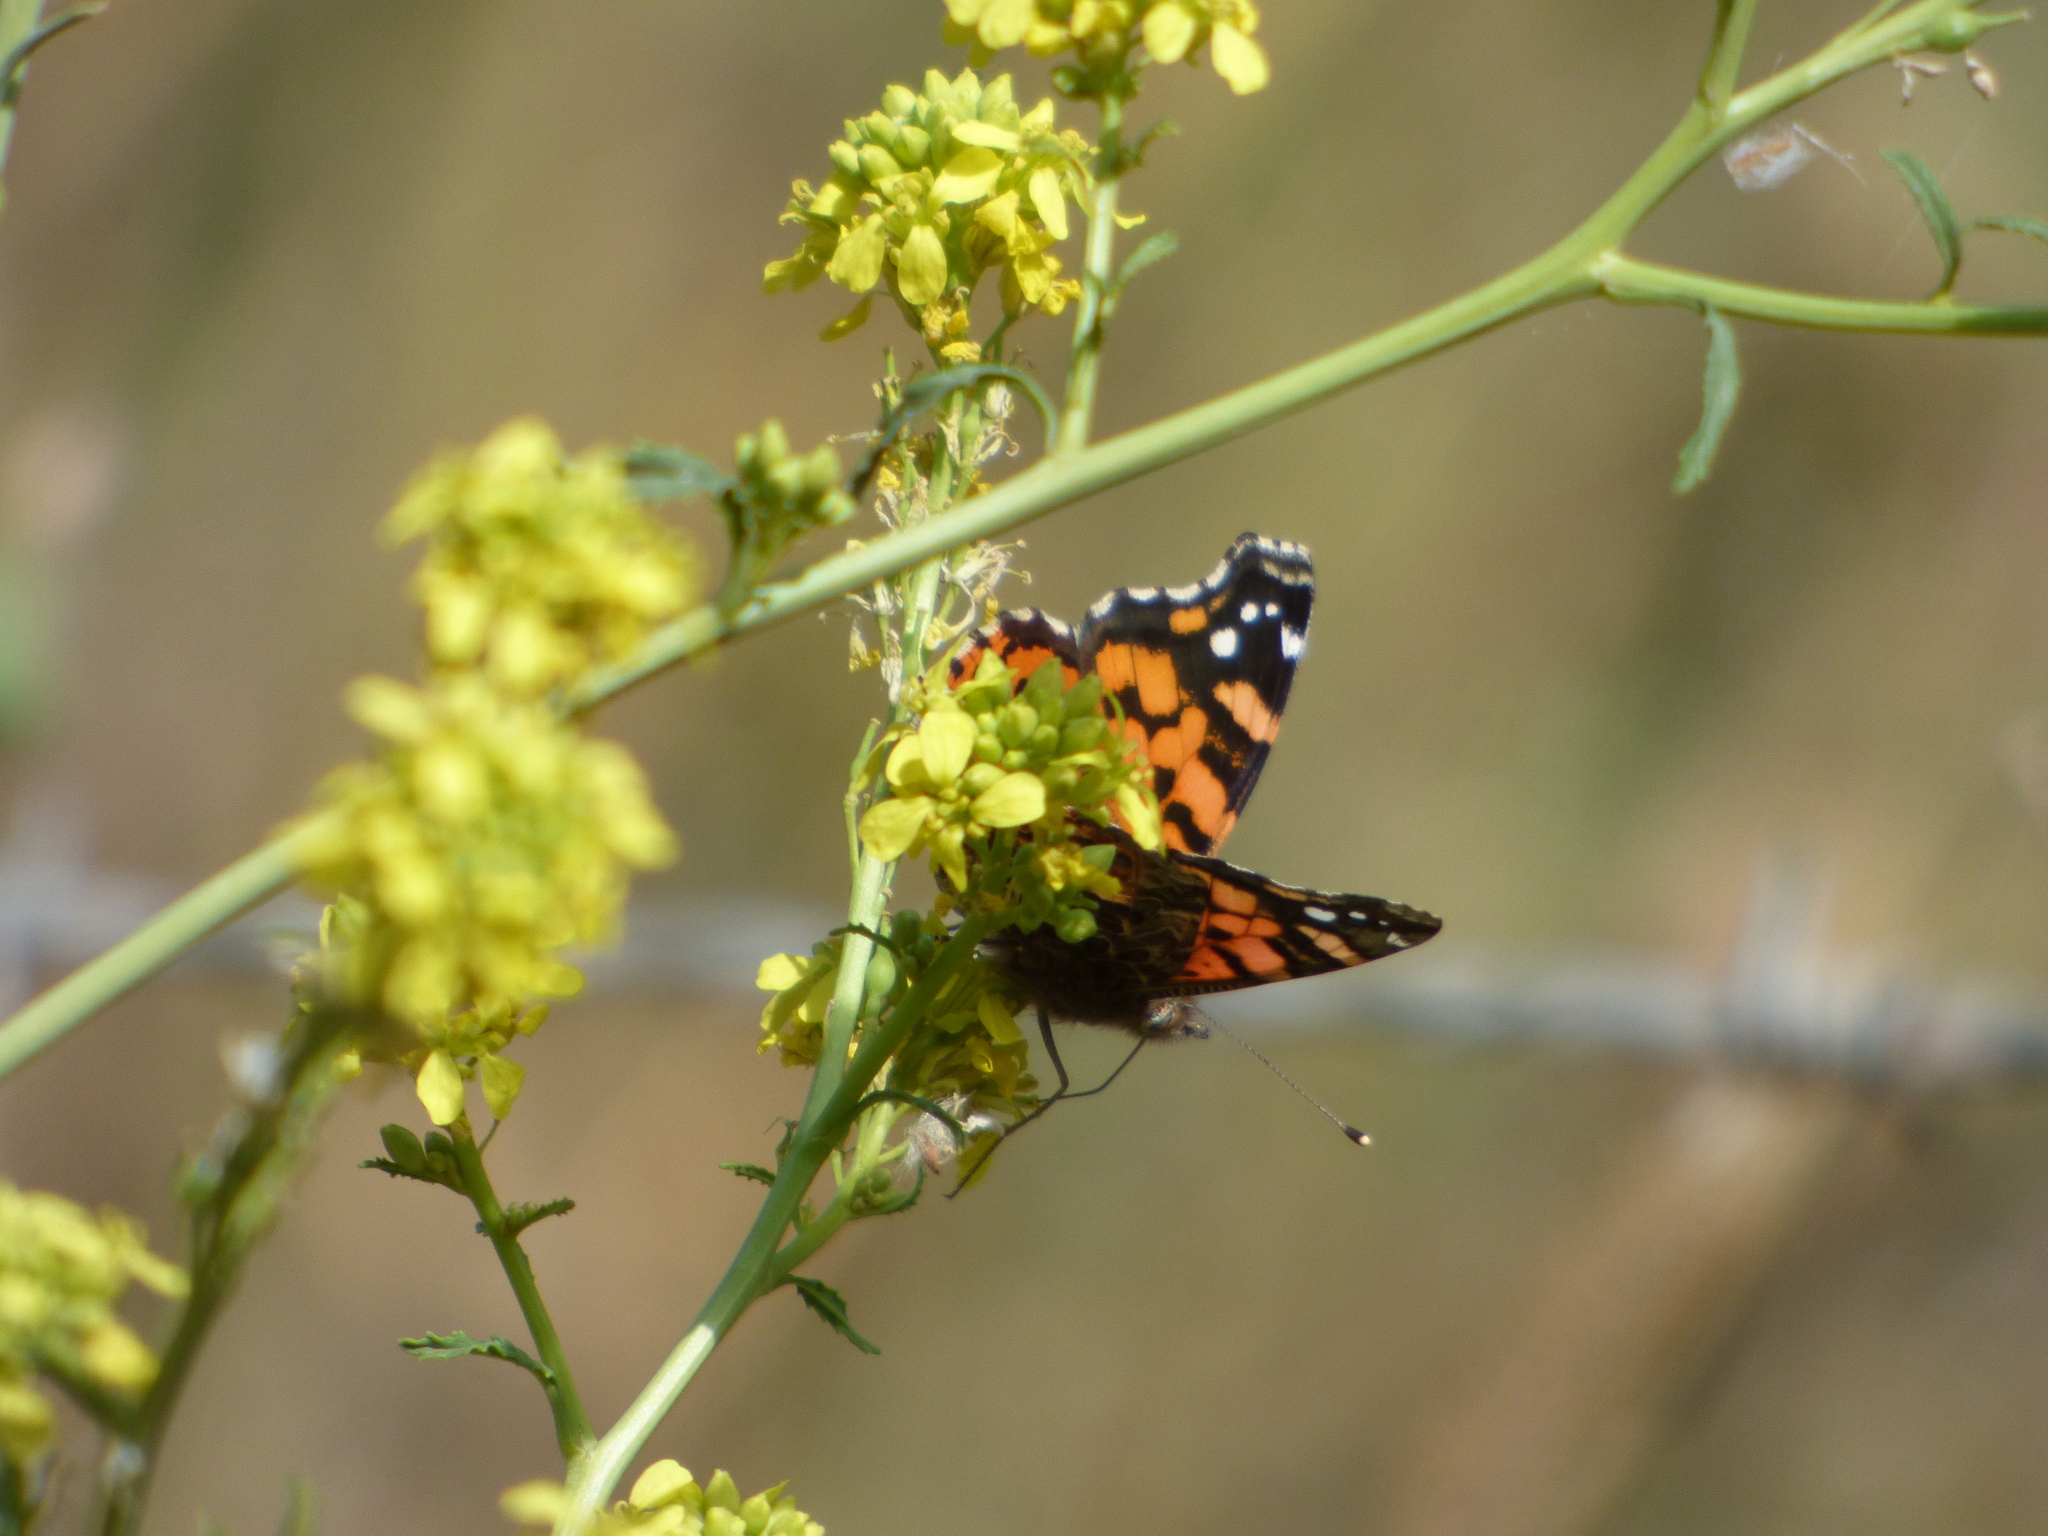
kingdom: Animalia
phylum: Arthropoda
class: Insecta
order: Lepidoptera
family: Nymphalidae
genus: Vanessa
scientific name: Vanessa carye
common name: Subtropical lady
